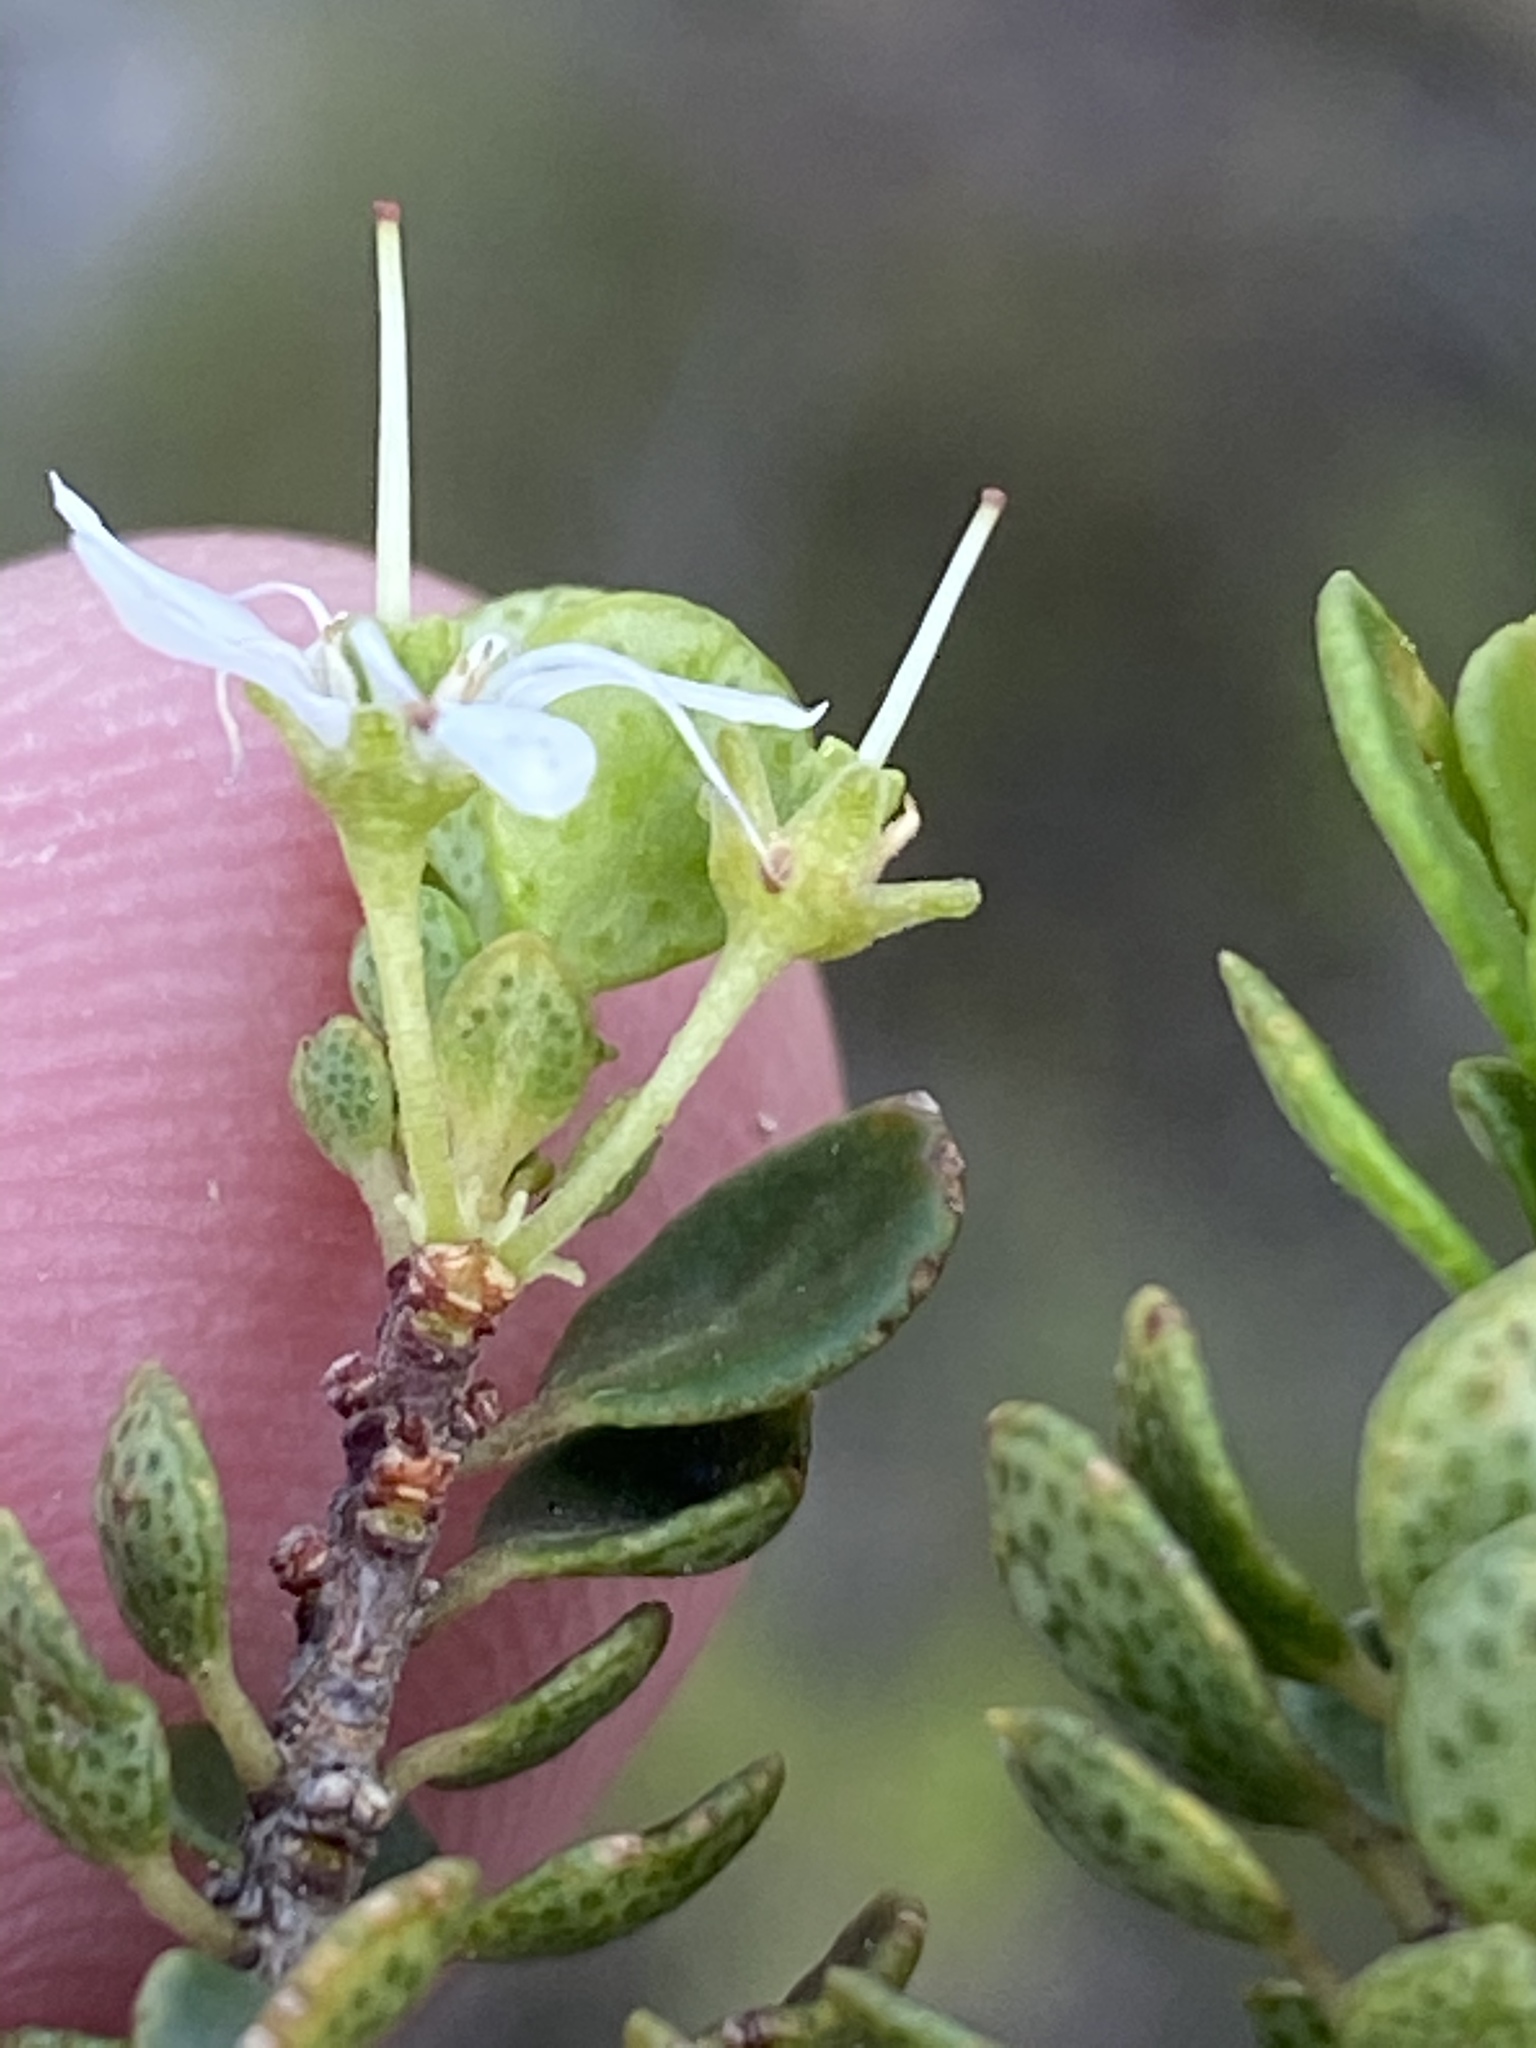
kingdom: Plantae
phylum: Tracheophyta
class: Magnoliopsida
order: Sapindales
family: Rutaceae
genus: Agathosma
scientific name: Agathosma ovata
